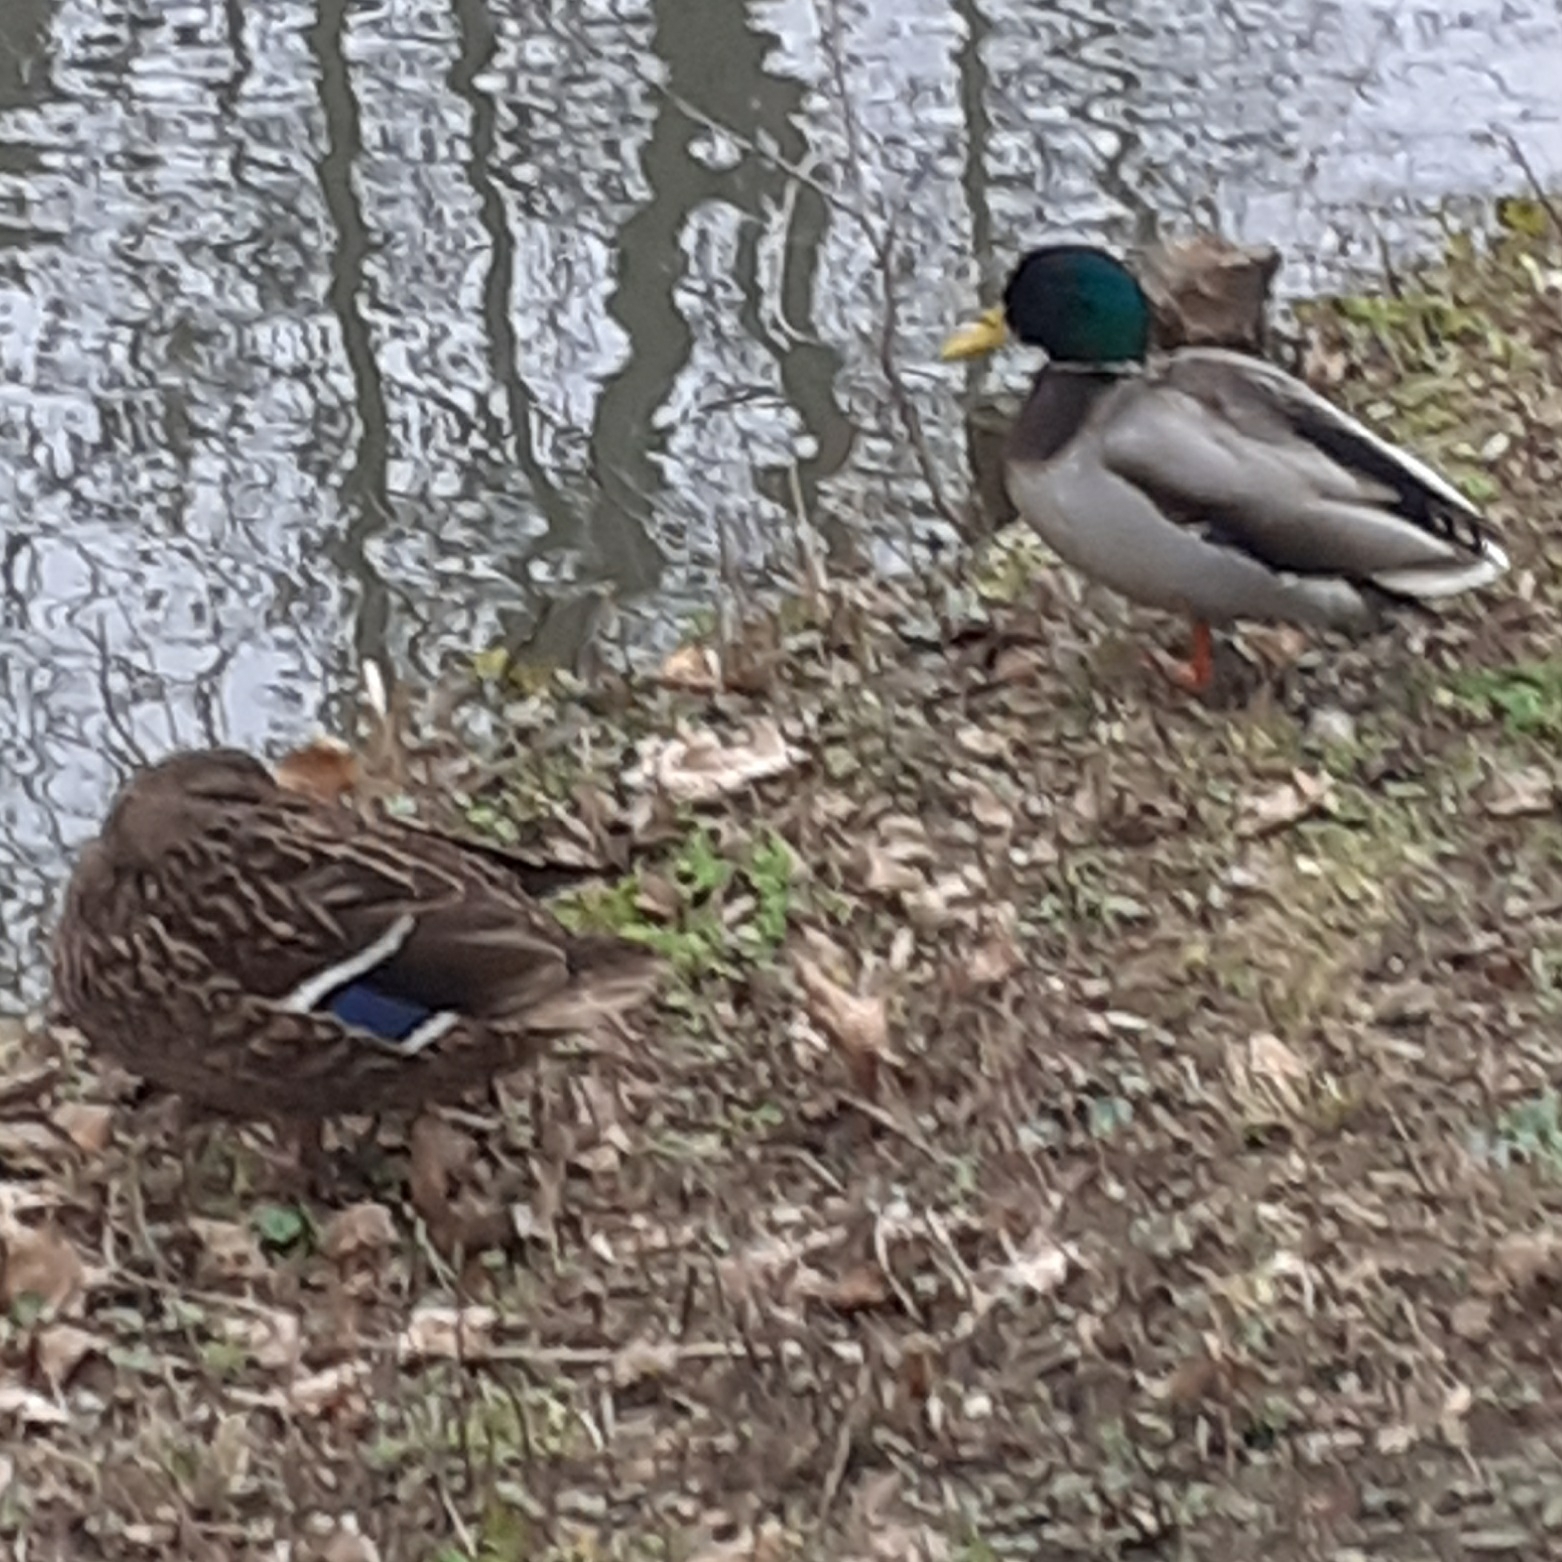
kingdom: Animalia
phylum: Chordata
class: Aves
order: Anseriformes
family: Anatidae
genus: Anas
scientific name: Anas platyrhynchos
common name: Mallard
